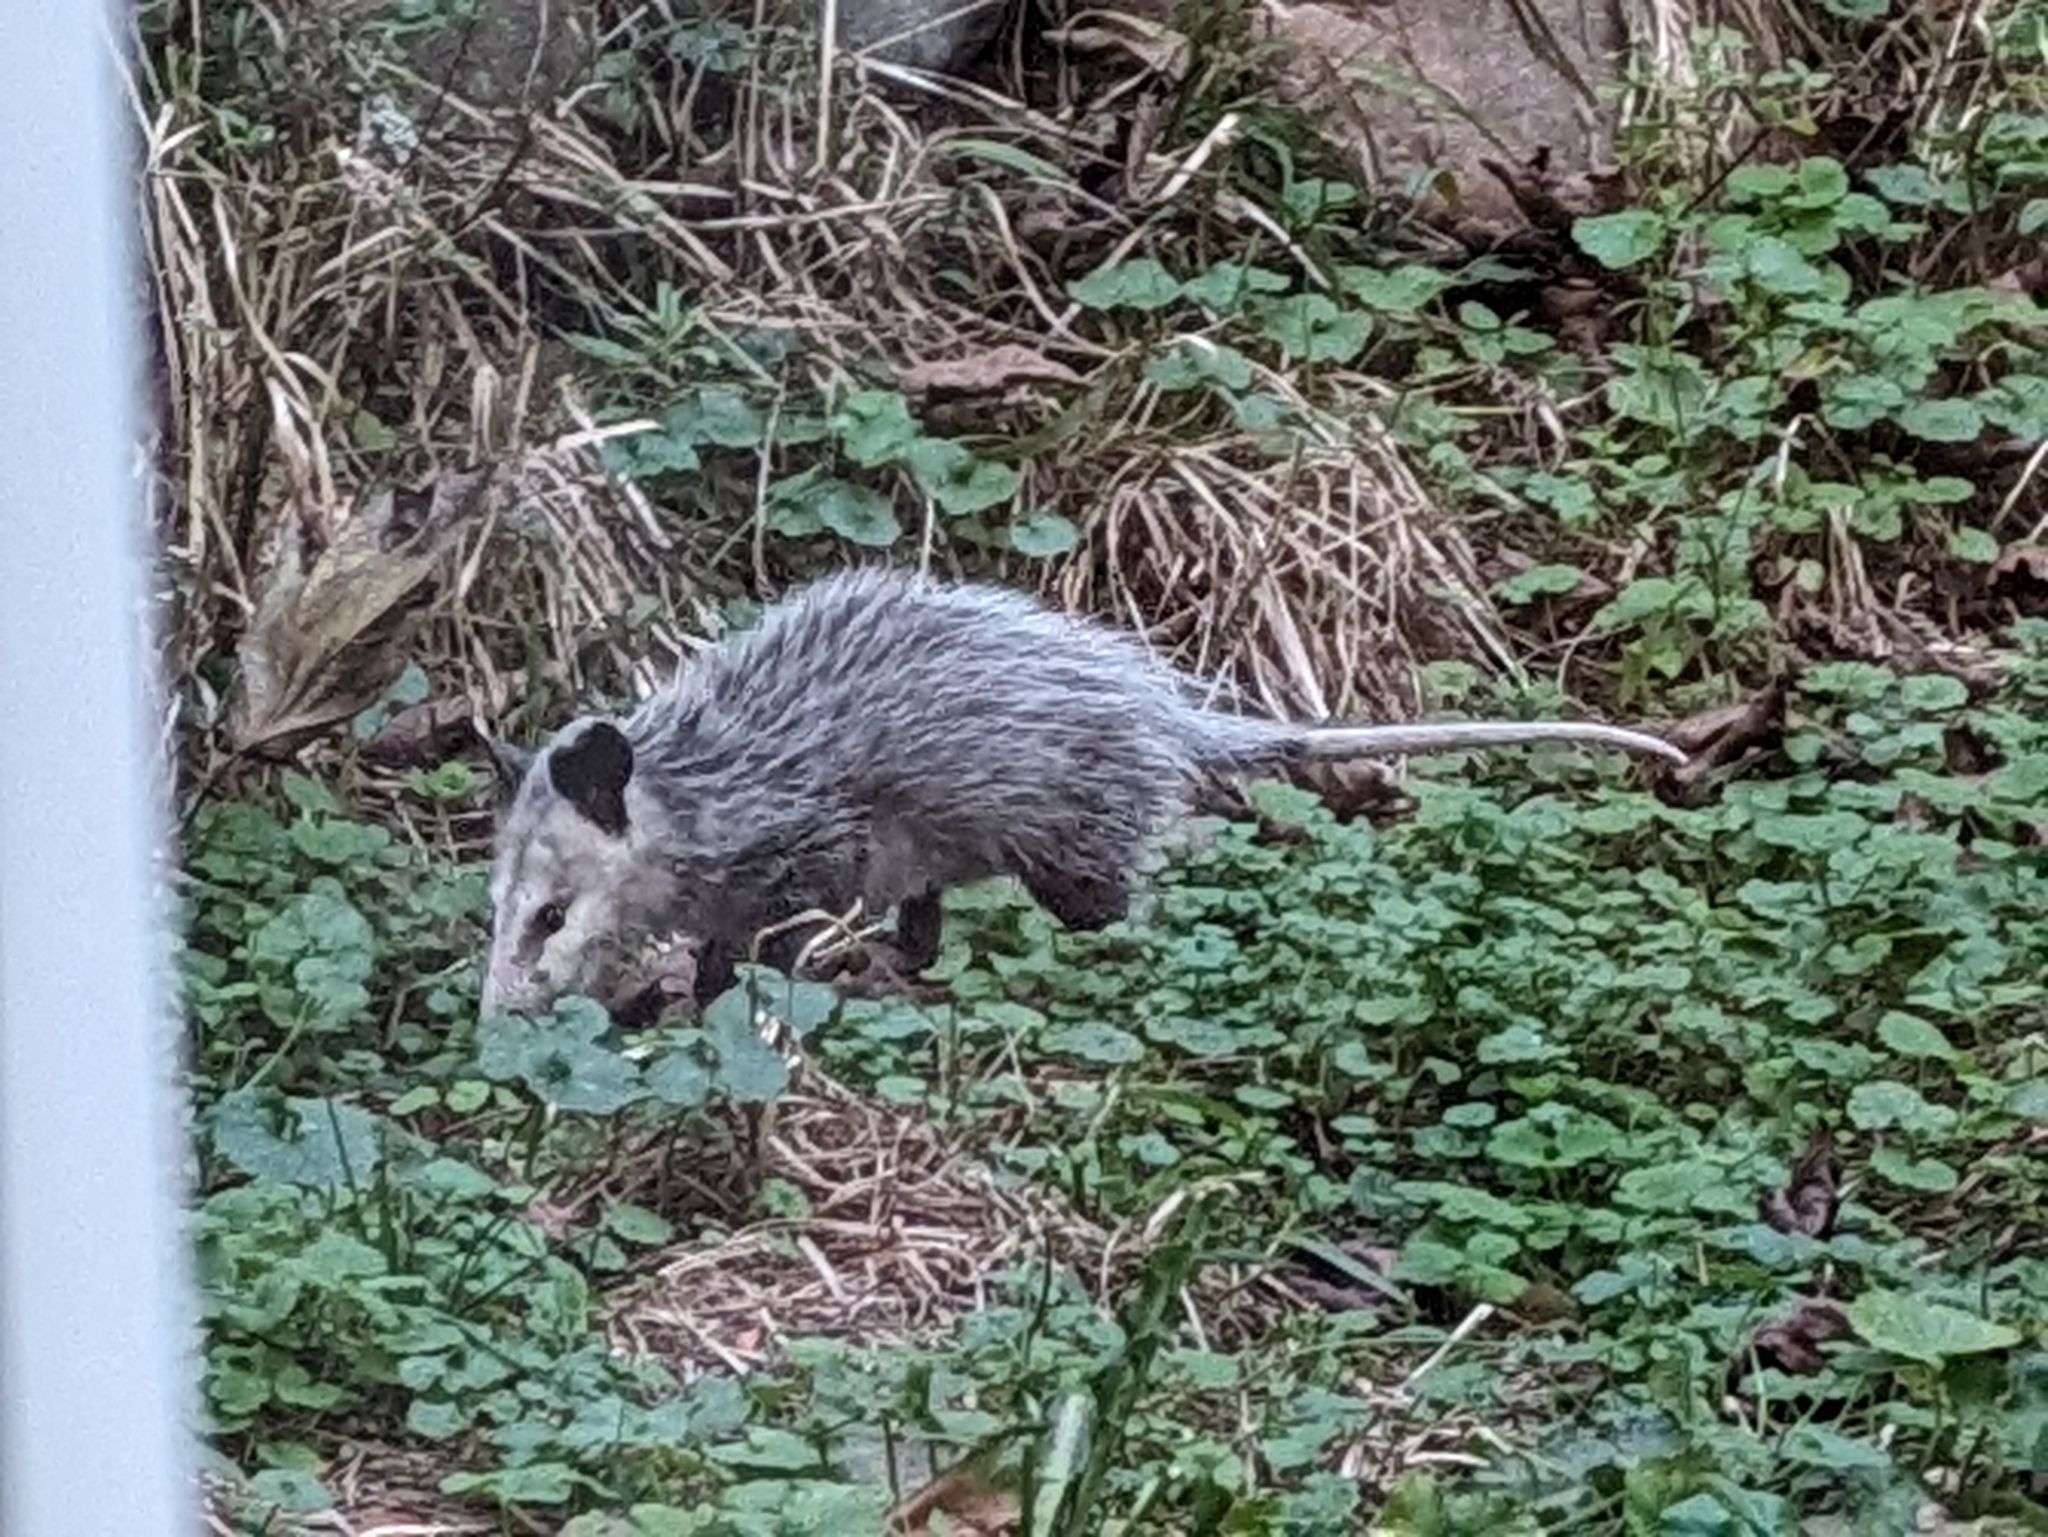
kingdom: Animalia
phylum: Chordata
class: Mammalia
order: Didelphimorphia
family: Didelphidae
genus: Didelphis
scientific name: Didelphis virginiana
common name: Virginia opossum
